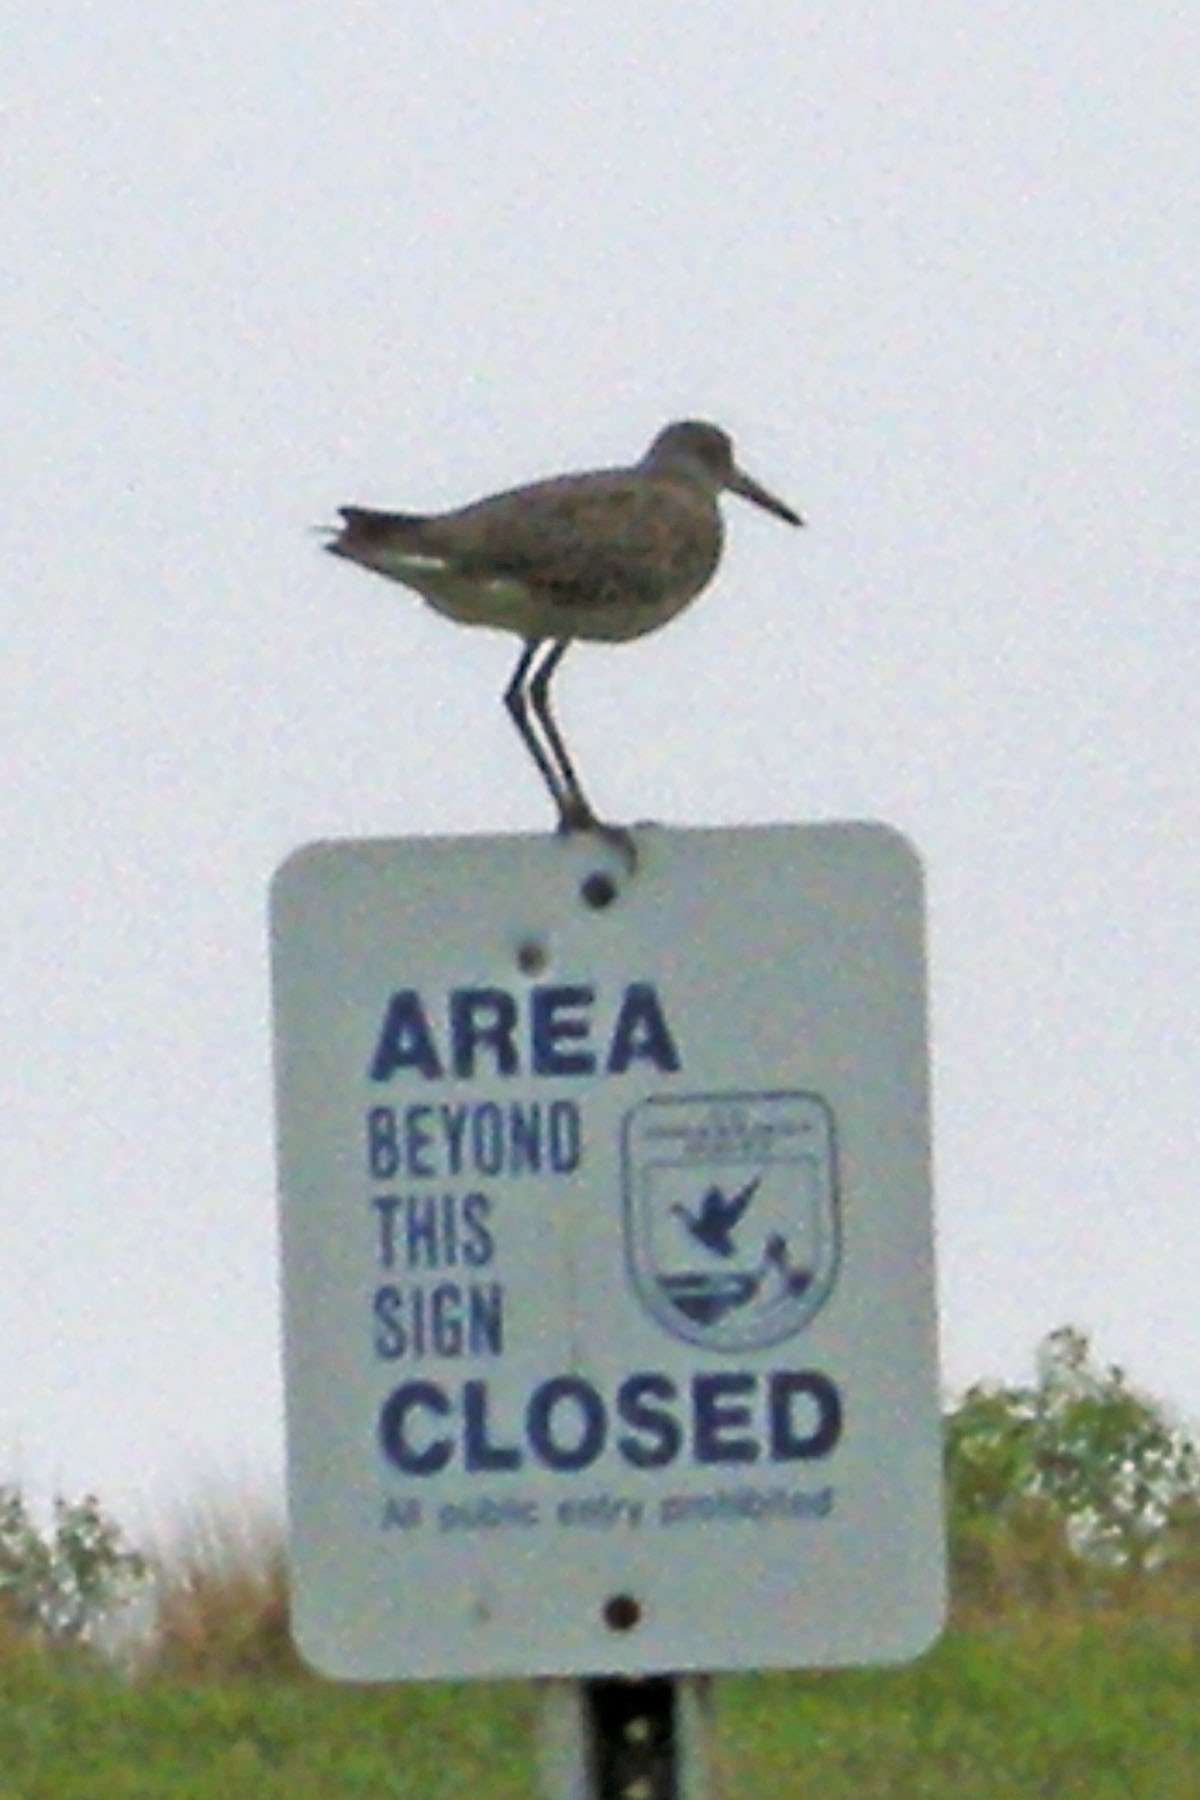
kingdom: Animalia
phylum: Chordata
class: Aves
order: Charadriiformes
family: Scolopacidae
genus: Tringa
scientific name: Tringa semipalmata
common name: Willet
